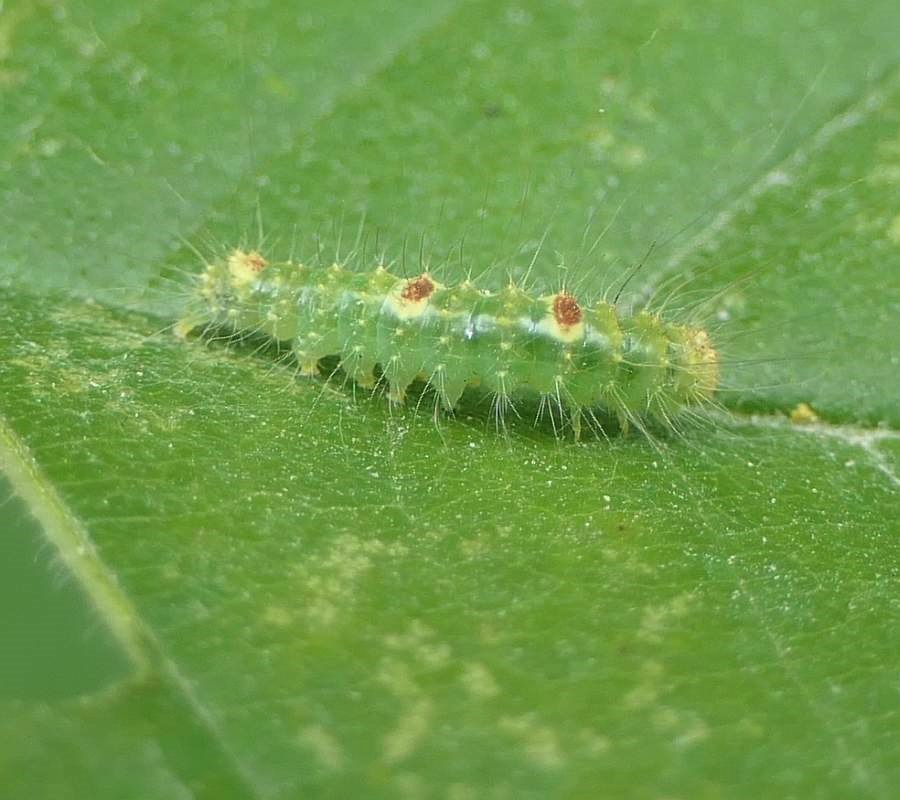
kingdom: Animalia
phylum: Arthropoda
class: Insecta
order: Lepidoptera
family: Noctuidae
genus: Acronicta
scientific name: Acronicta morula
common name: Ochre dagger
